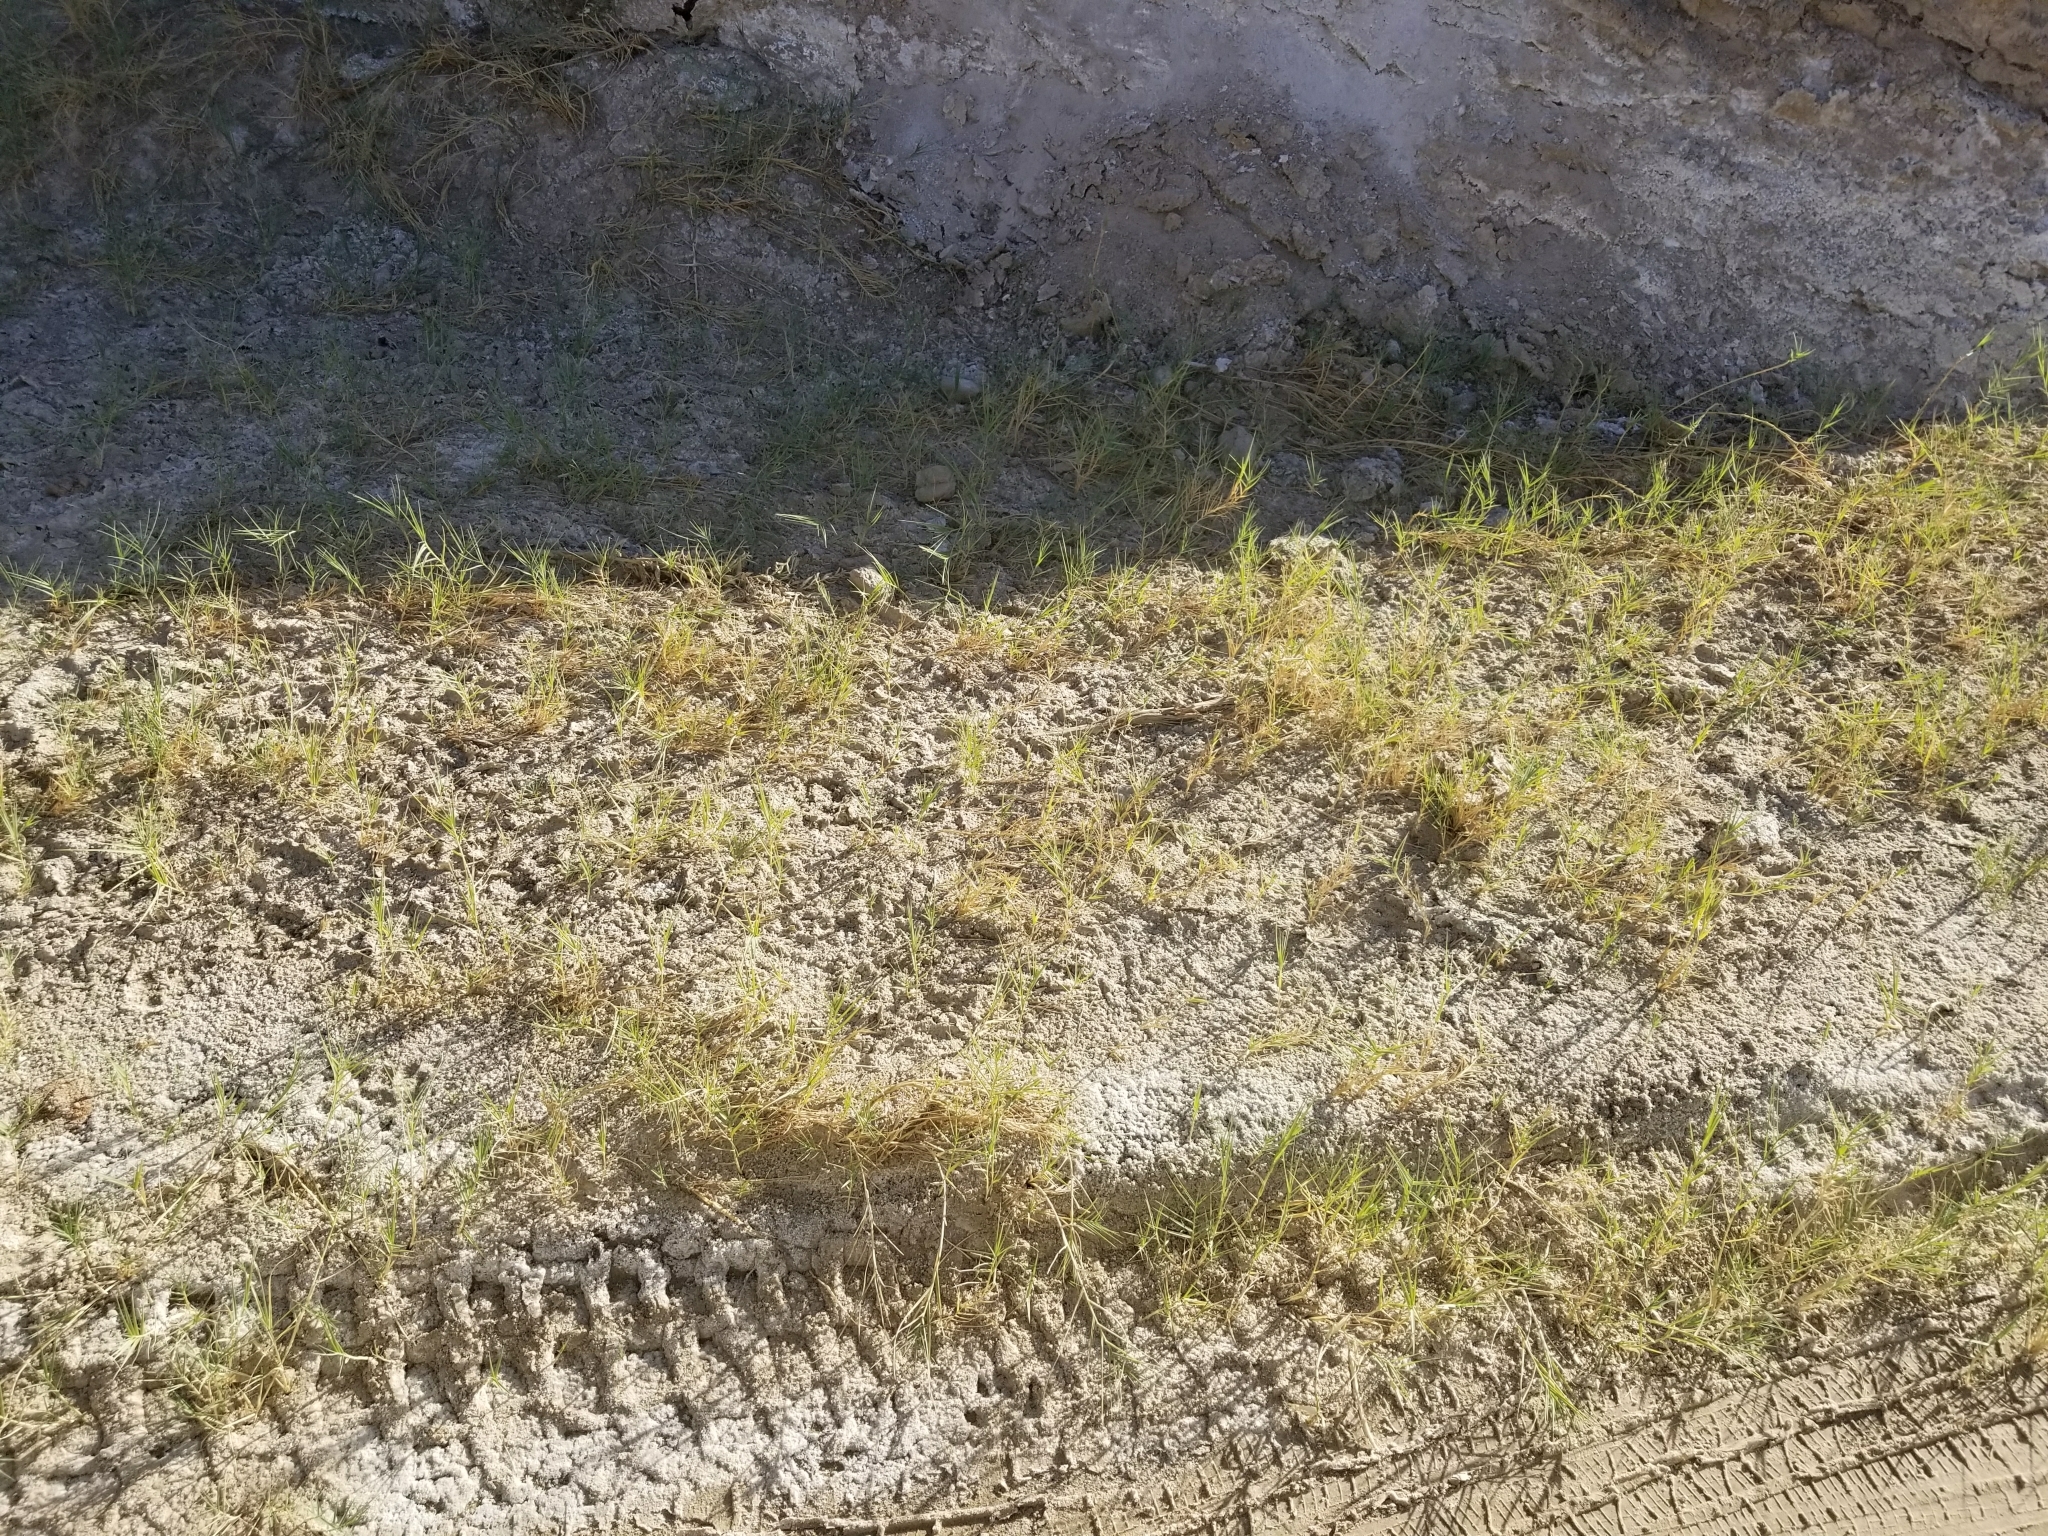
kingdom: Plantae
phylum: Tracheophyta
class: Liliopsida
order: Poales
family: Poaceae
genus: Distichlis
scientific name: Distichlis spicata
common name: Saltgrass
